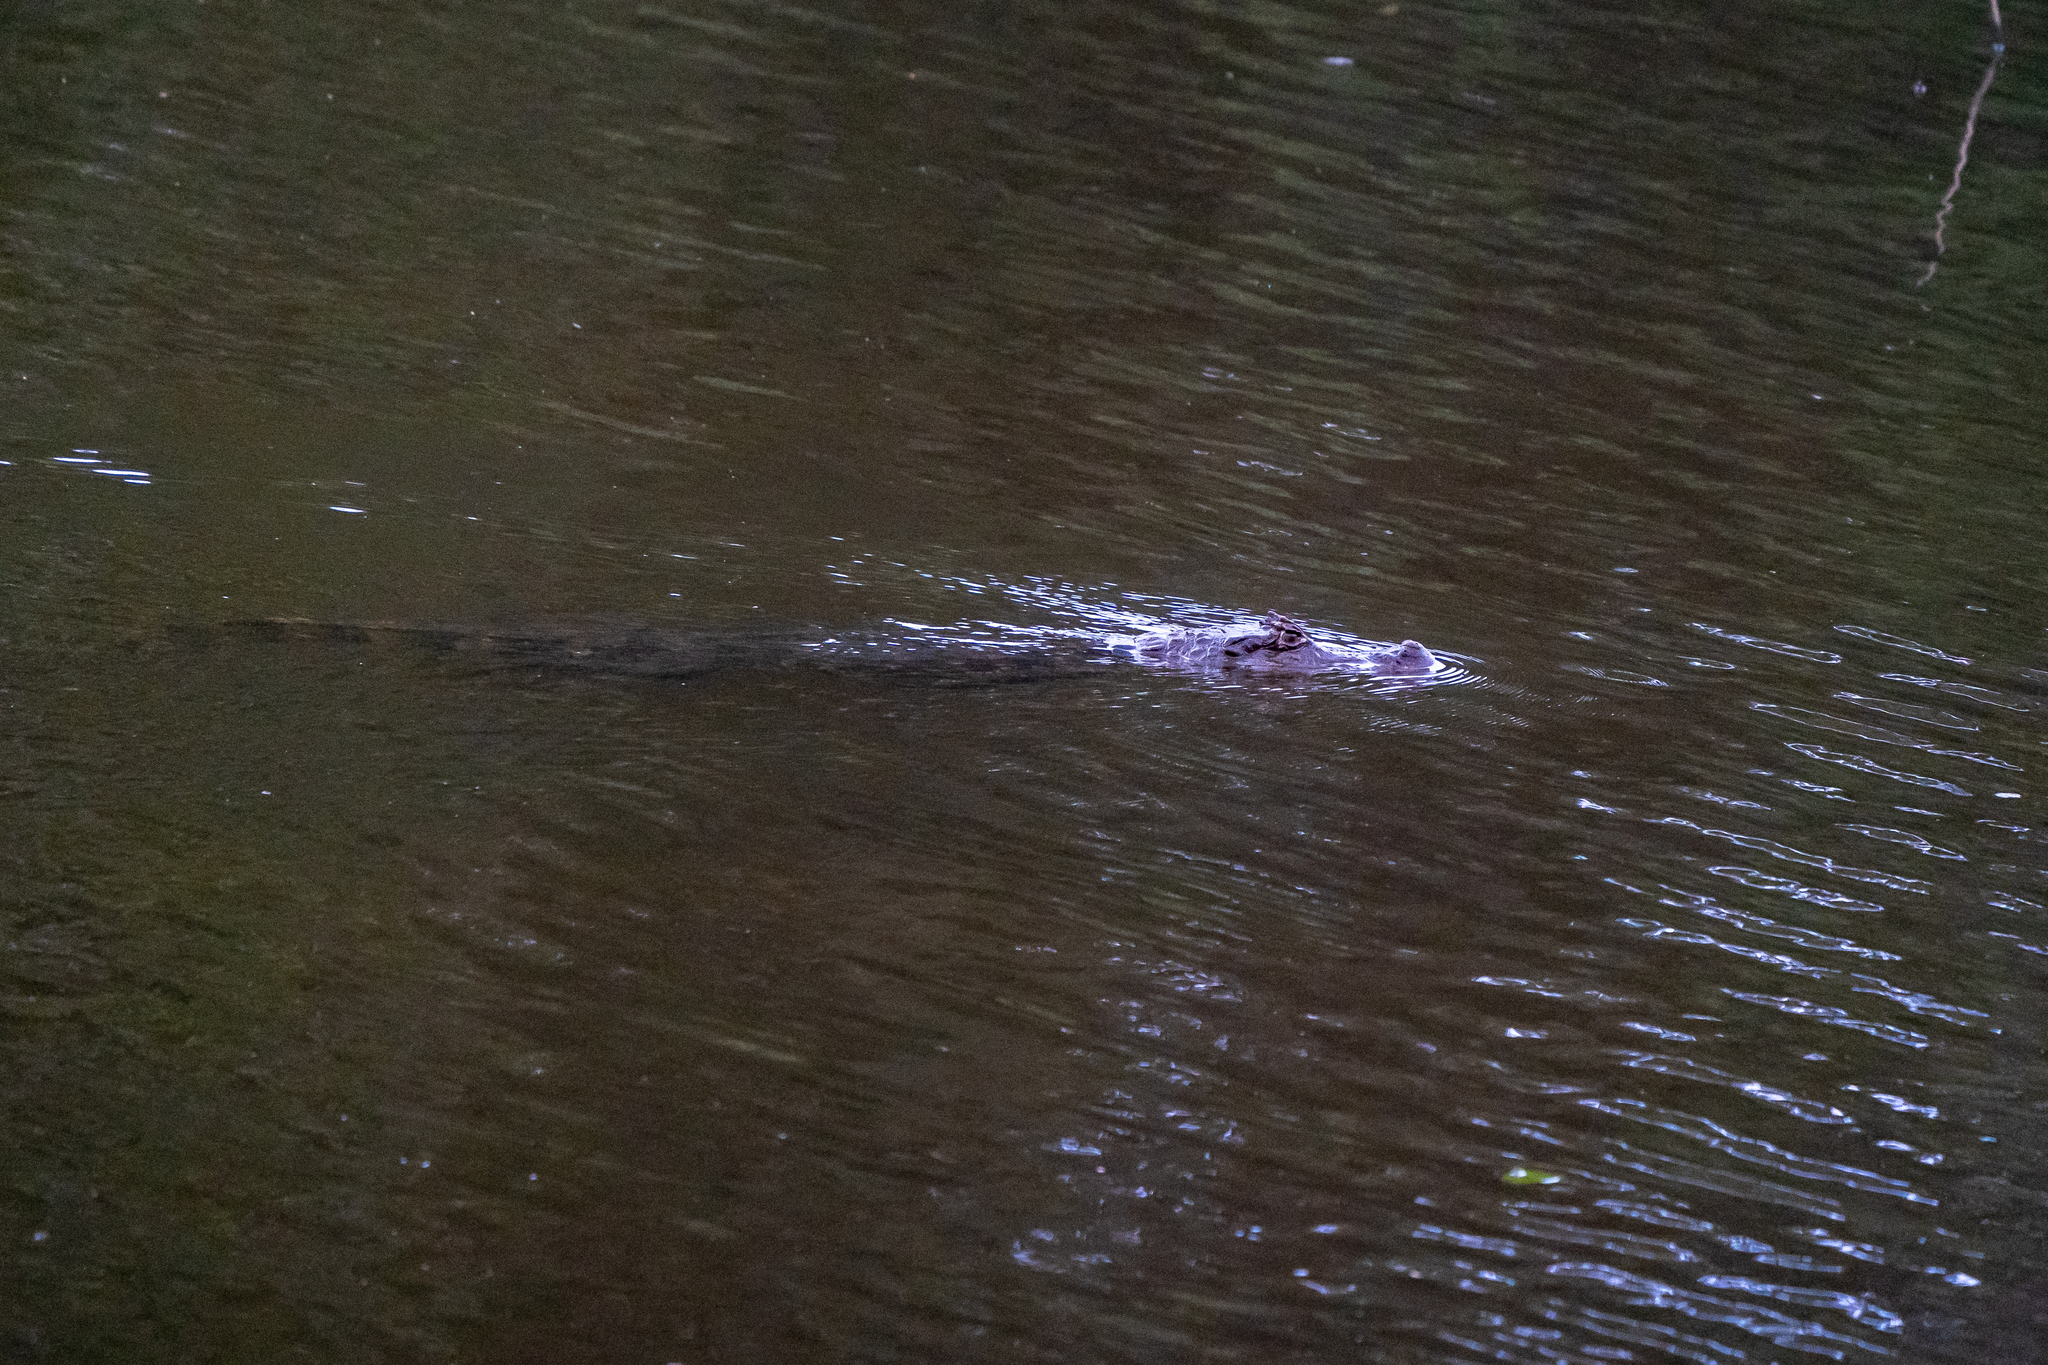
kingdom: Animalia
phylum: Chordata
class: Crocodylia
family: Alligatoridae
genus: Caiman
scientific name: Caiman crocodilus
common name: Common caiman
